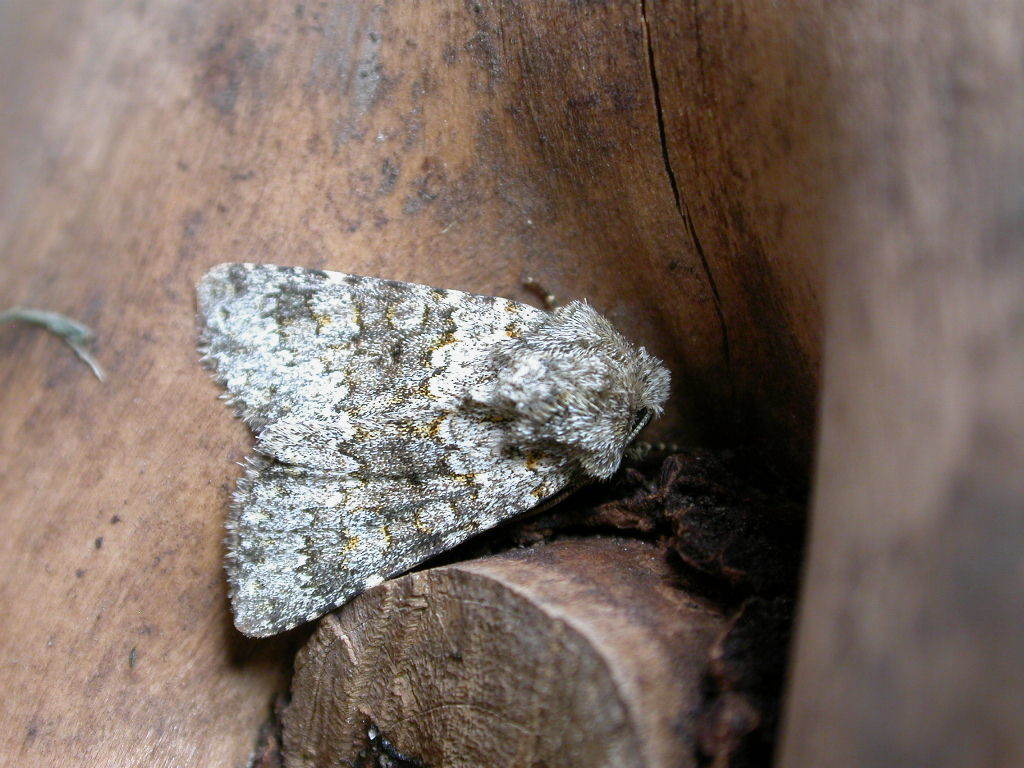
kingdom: Animalia
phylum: Arthropoda
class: Insecta
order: Lepidoptera
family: Noctuidae
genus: Hecatera
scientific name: Hecatera dysodea
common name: Small ranunculus
